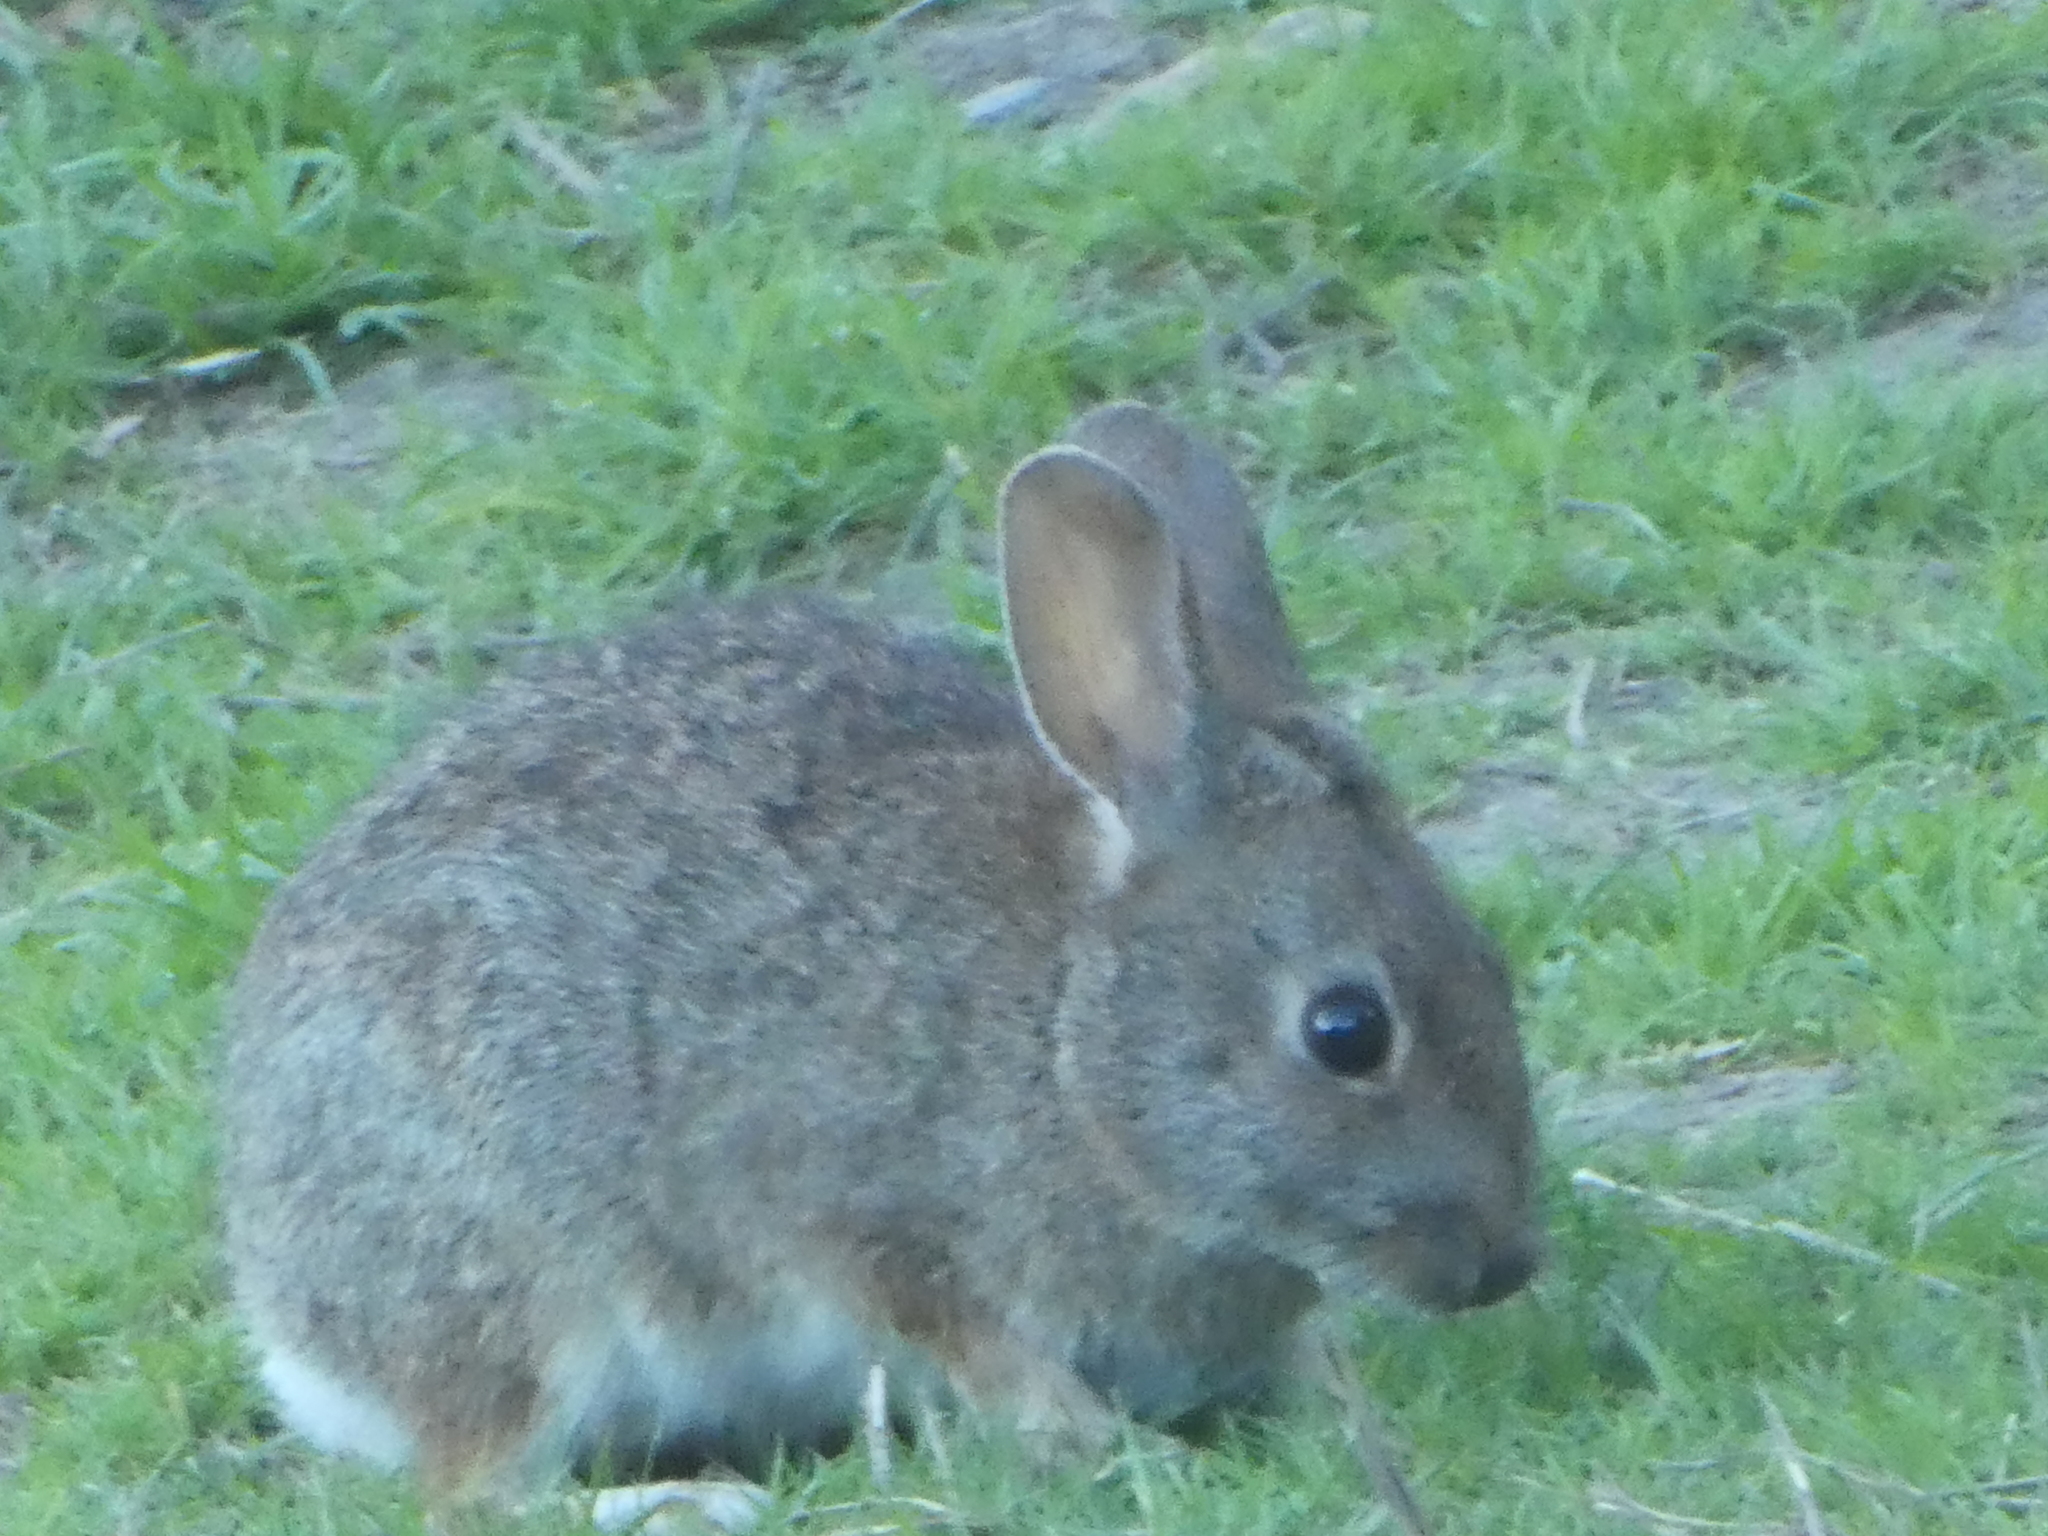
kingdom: Animalia
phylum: Chordata
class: Mammalia
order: Lagomorpha
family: Leporidae
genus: Sylvilagus
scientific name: Sylvilagus bachmani
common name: Brush rabbit
